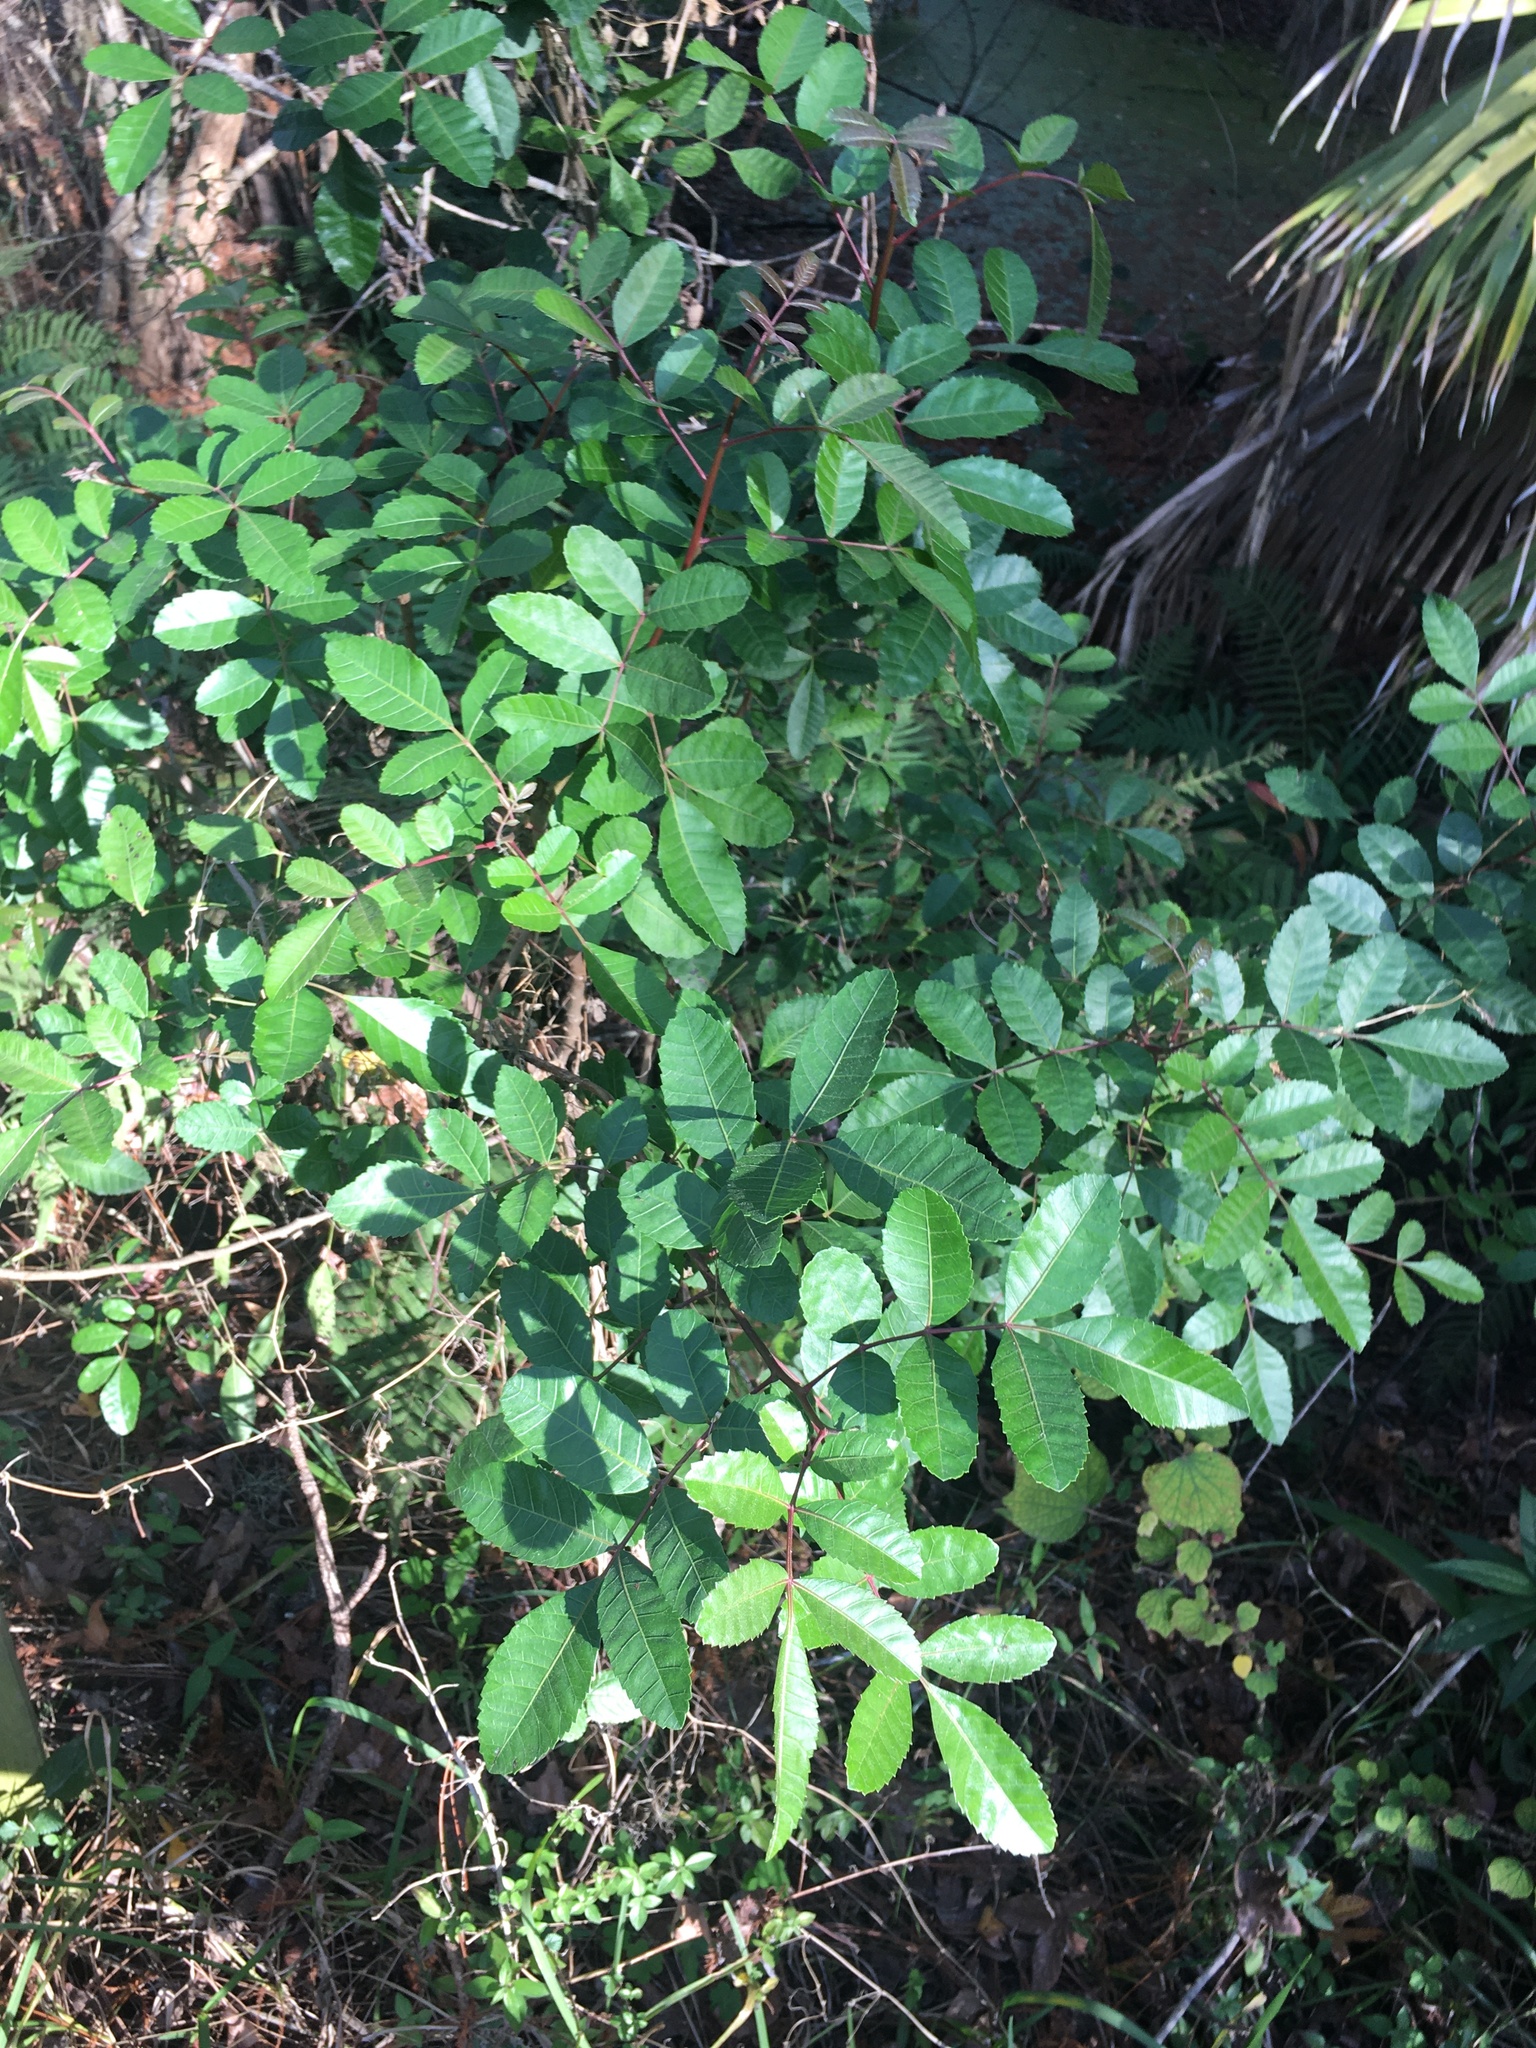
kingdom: Plantae
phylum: Tracheophyta
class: Magnoliopsida
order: Sapindales
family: Anacardiaceae
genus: Schinus
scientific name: Schinus terebinthifolia
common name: Brazilian peppertree
